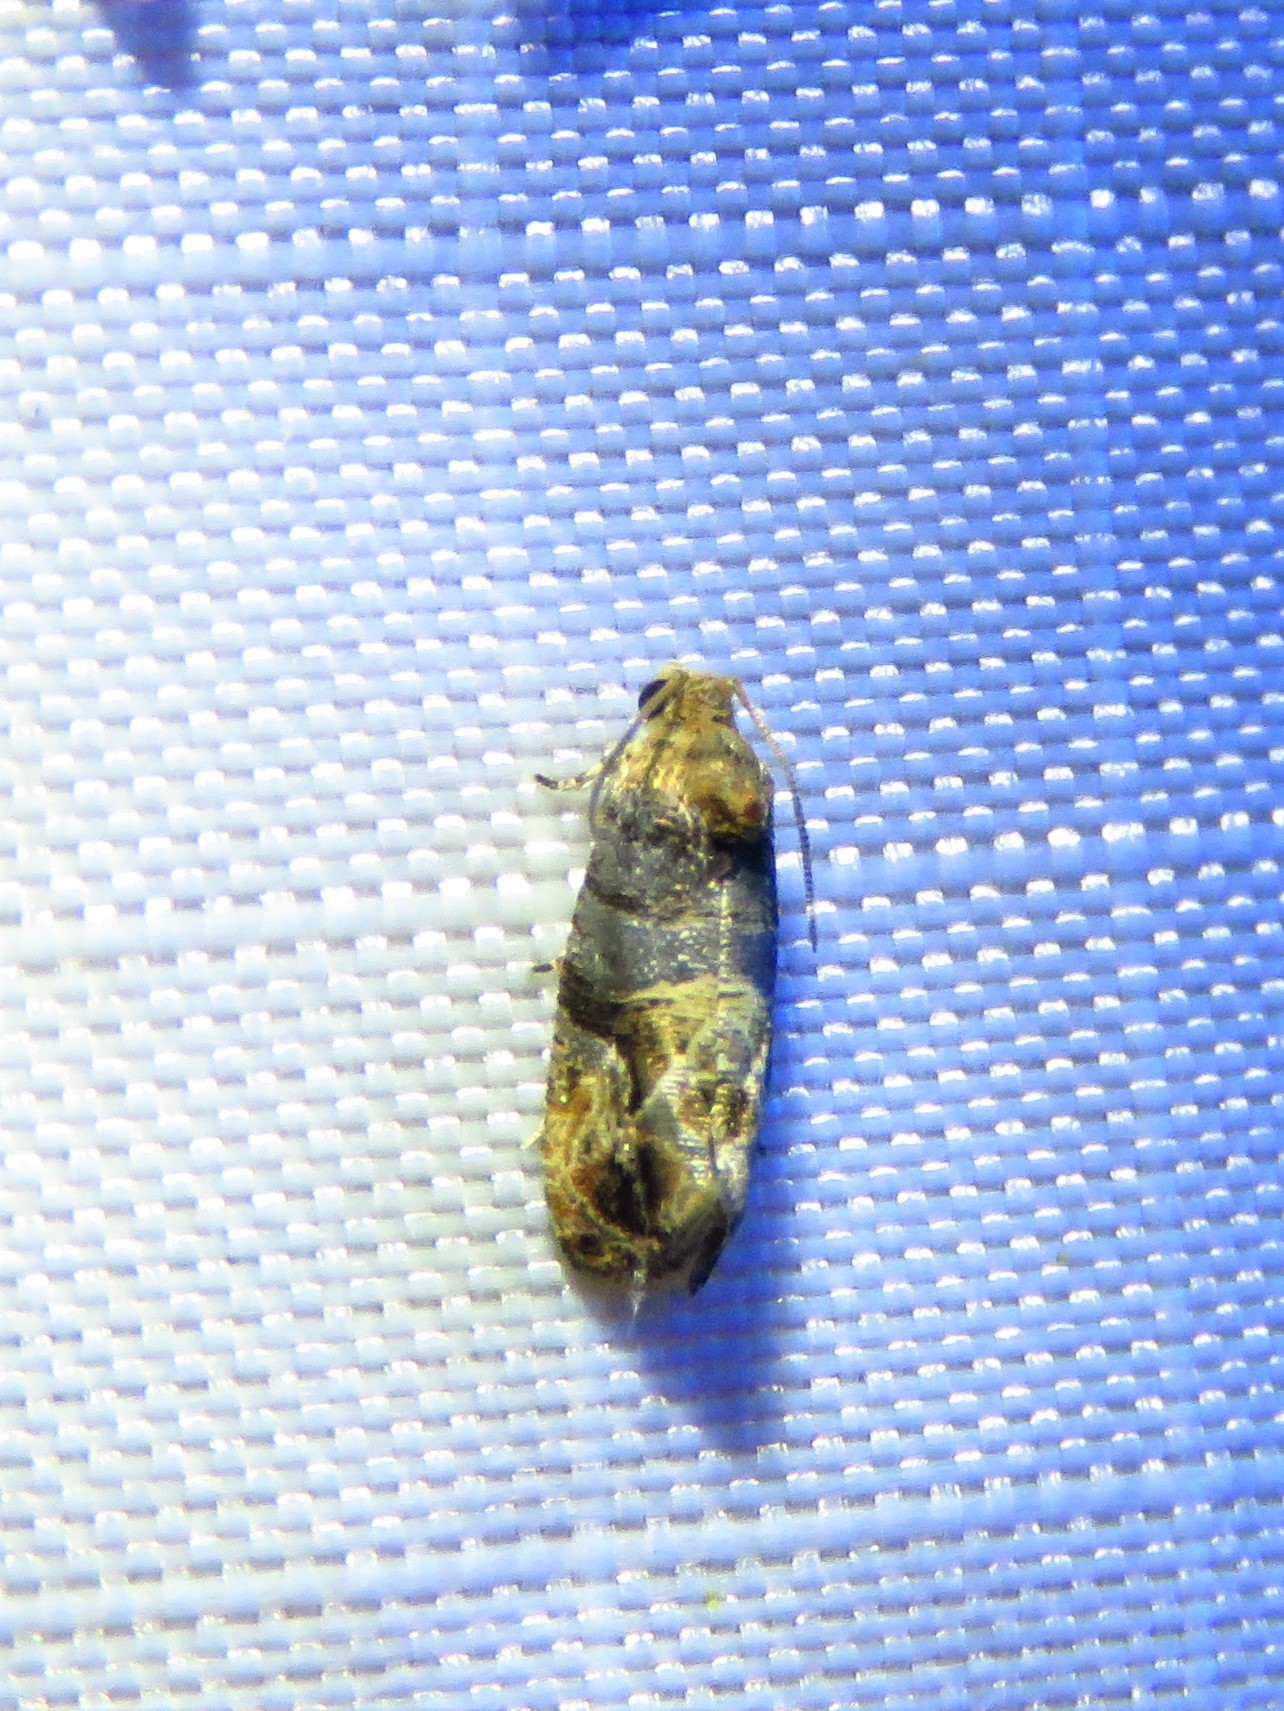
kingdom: Animalia
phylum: Arthropoda
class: Insecta
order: Lepidoptera
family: Tortricidae
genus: Paralobesia
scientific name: Paralobesia viteana
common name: Grape berry moth
